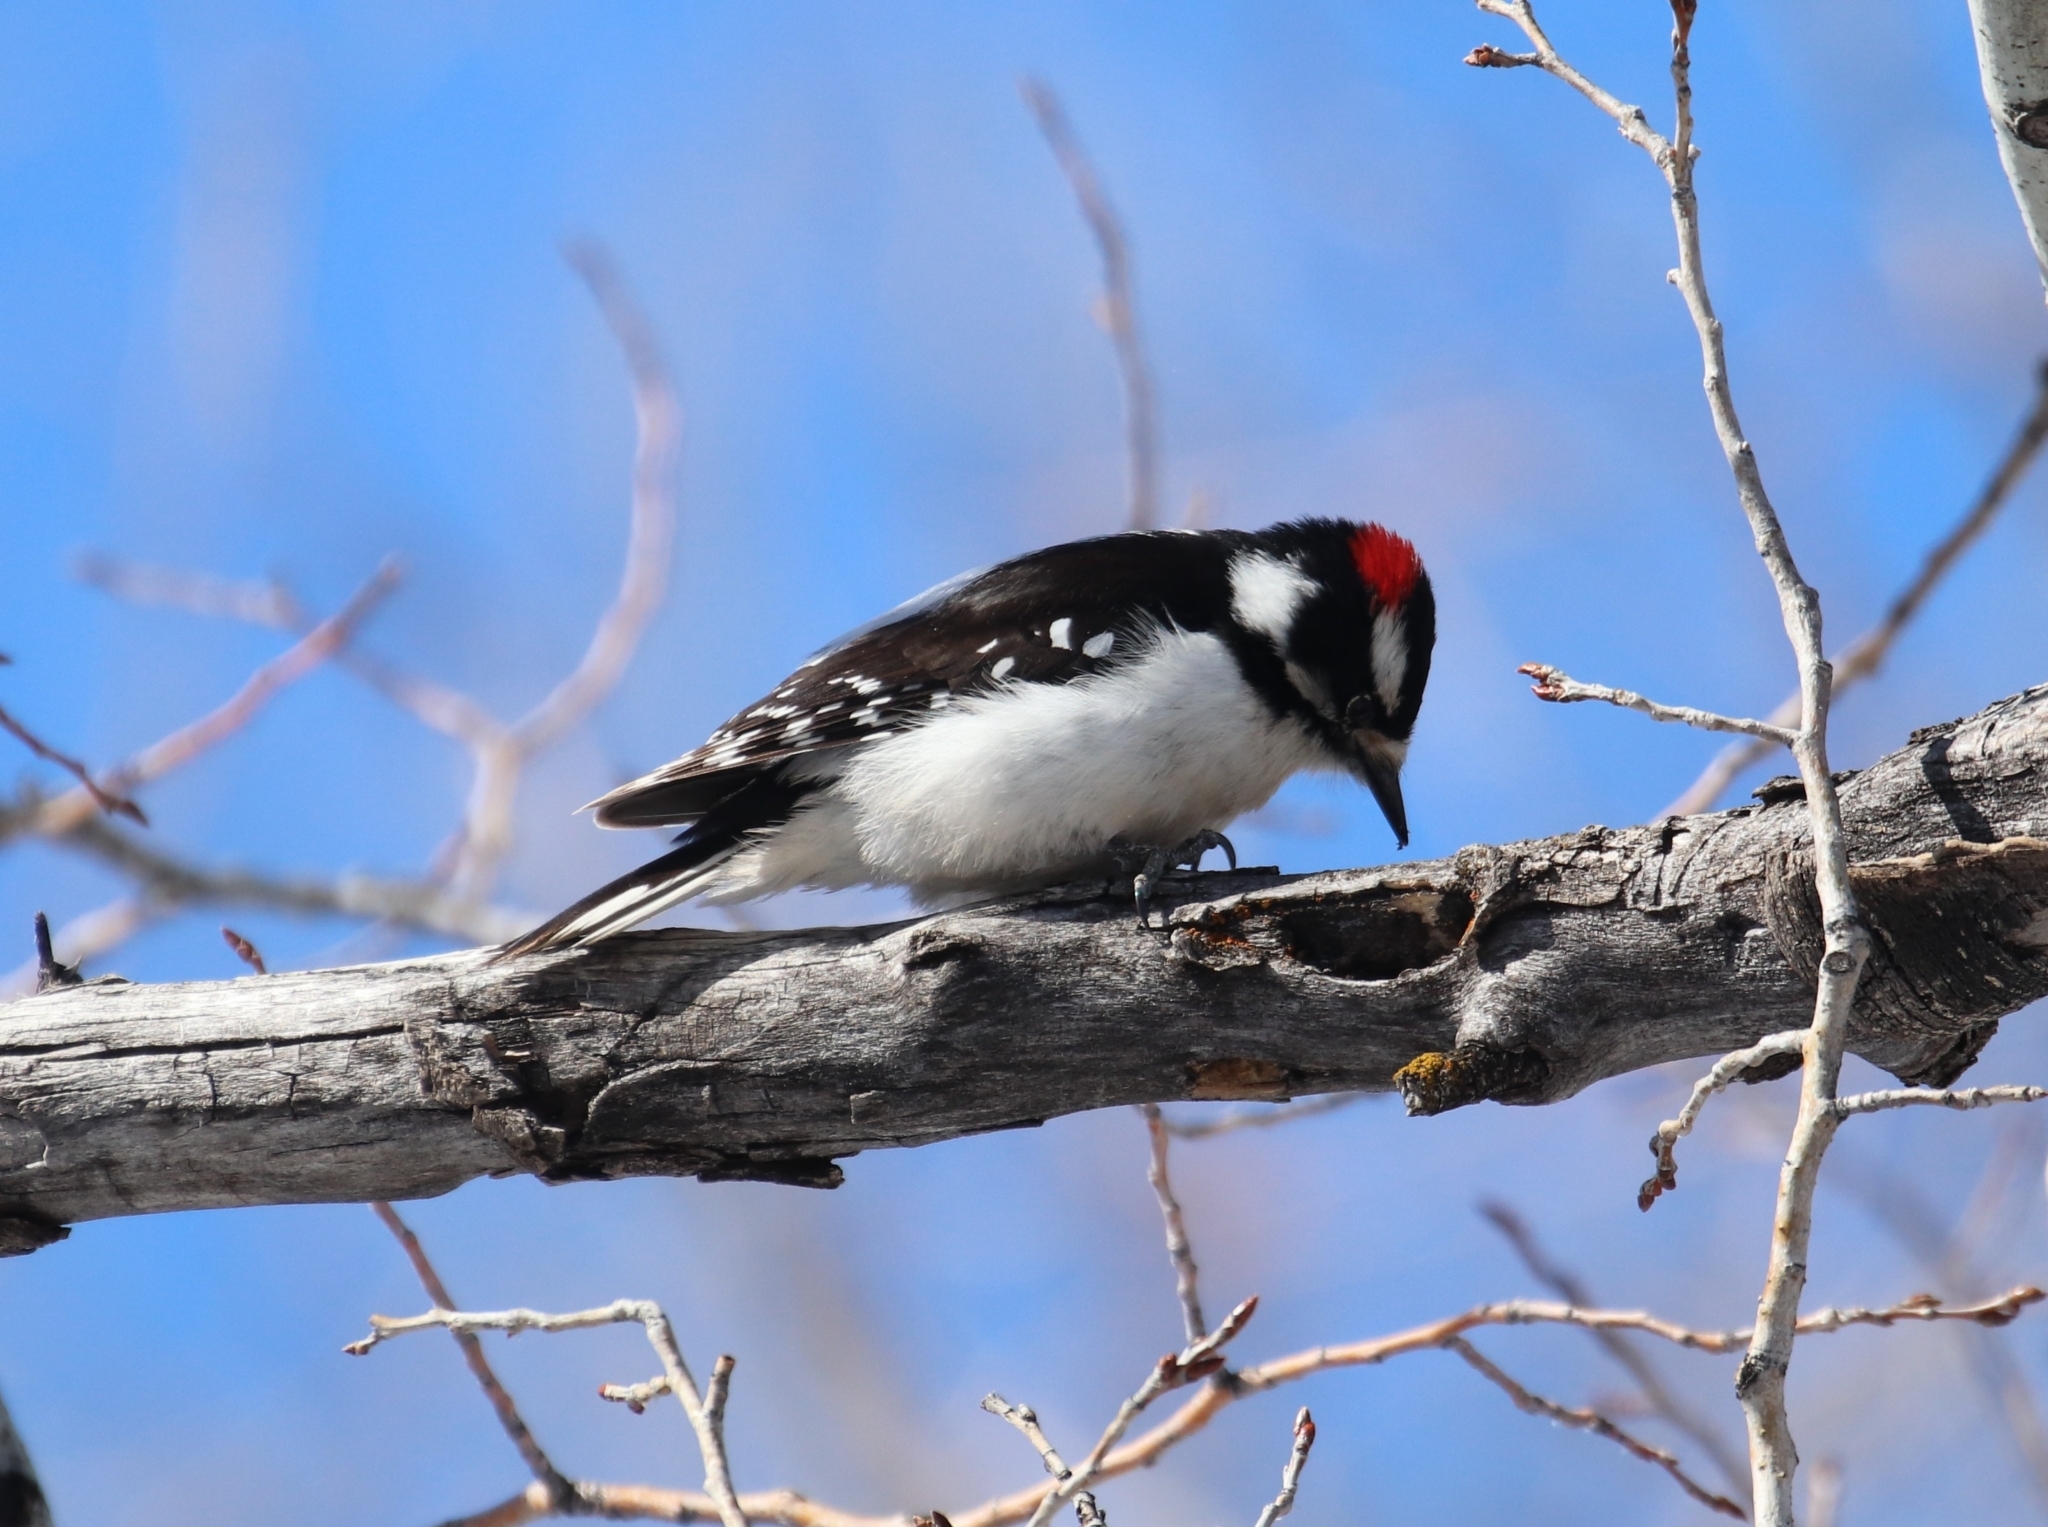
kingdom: Animalia
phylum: Chordata
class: Aves
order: Piciformes
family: Picidae
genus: Dryobates
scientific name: Dryobates pubescens
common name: Downy woodpecker
